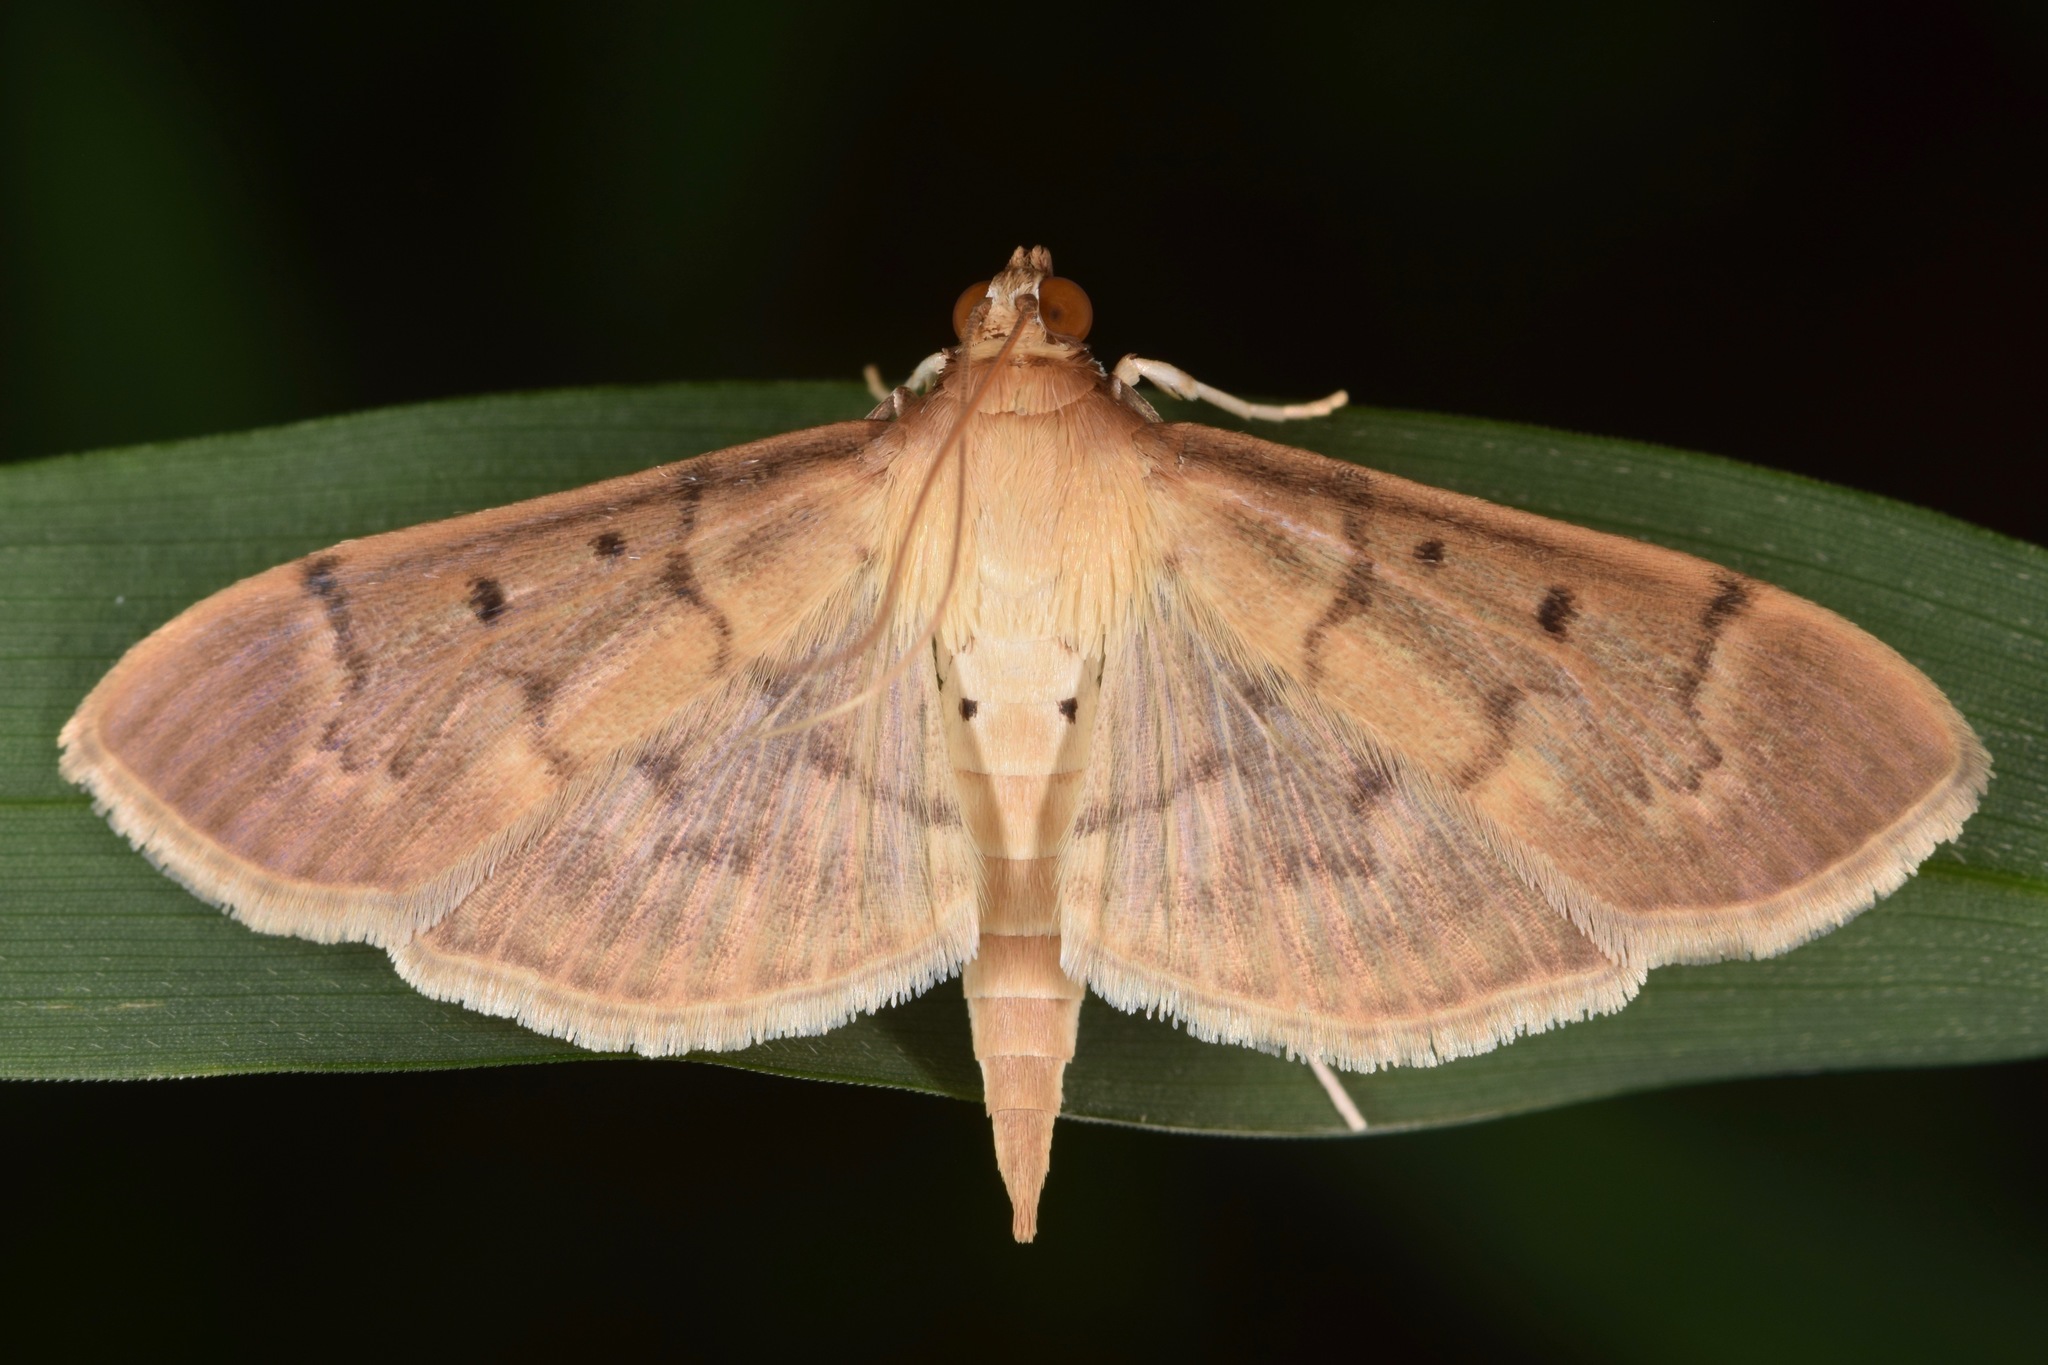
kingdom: Animalia
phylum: Arthropoda
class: Insecta
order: Lepidoptera
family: Crambidae
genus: Herpetogramma
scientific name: Herpetogramma bipunctalis
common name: Southern beet webworm
